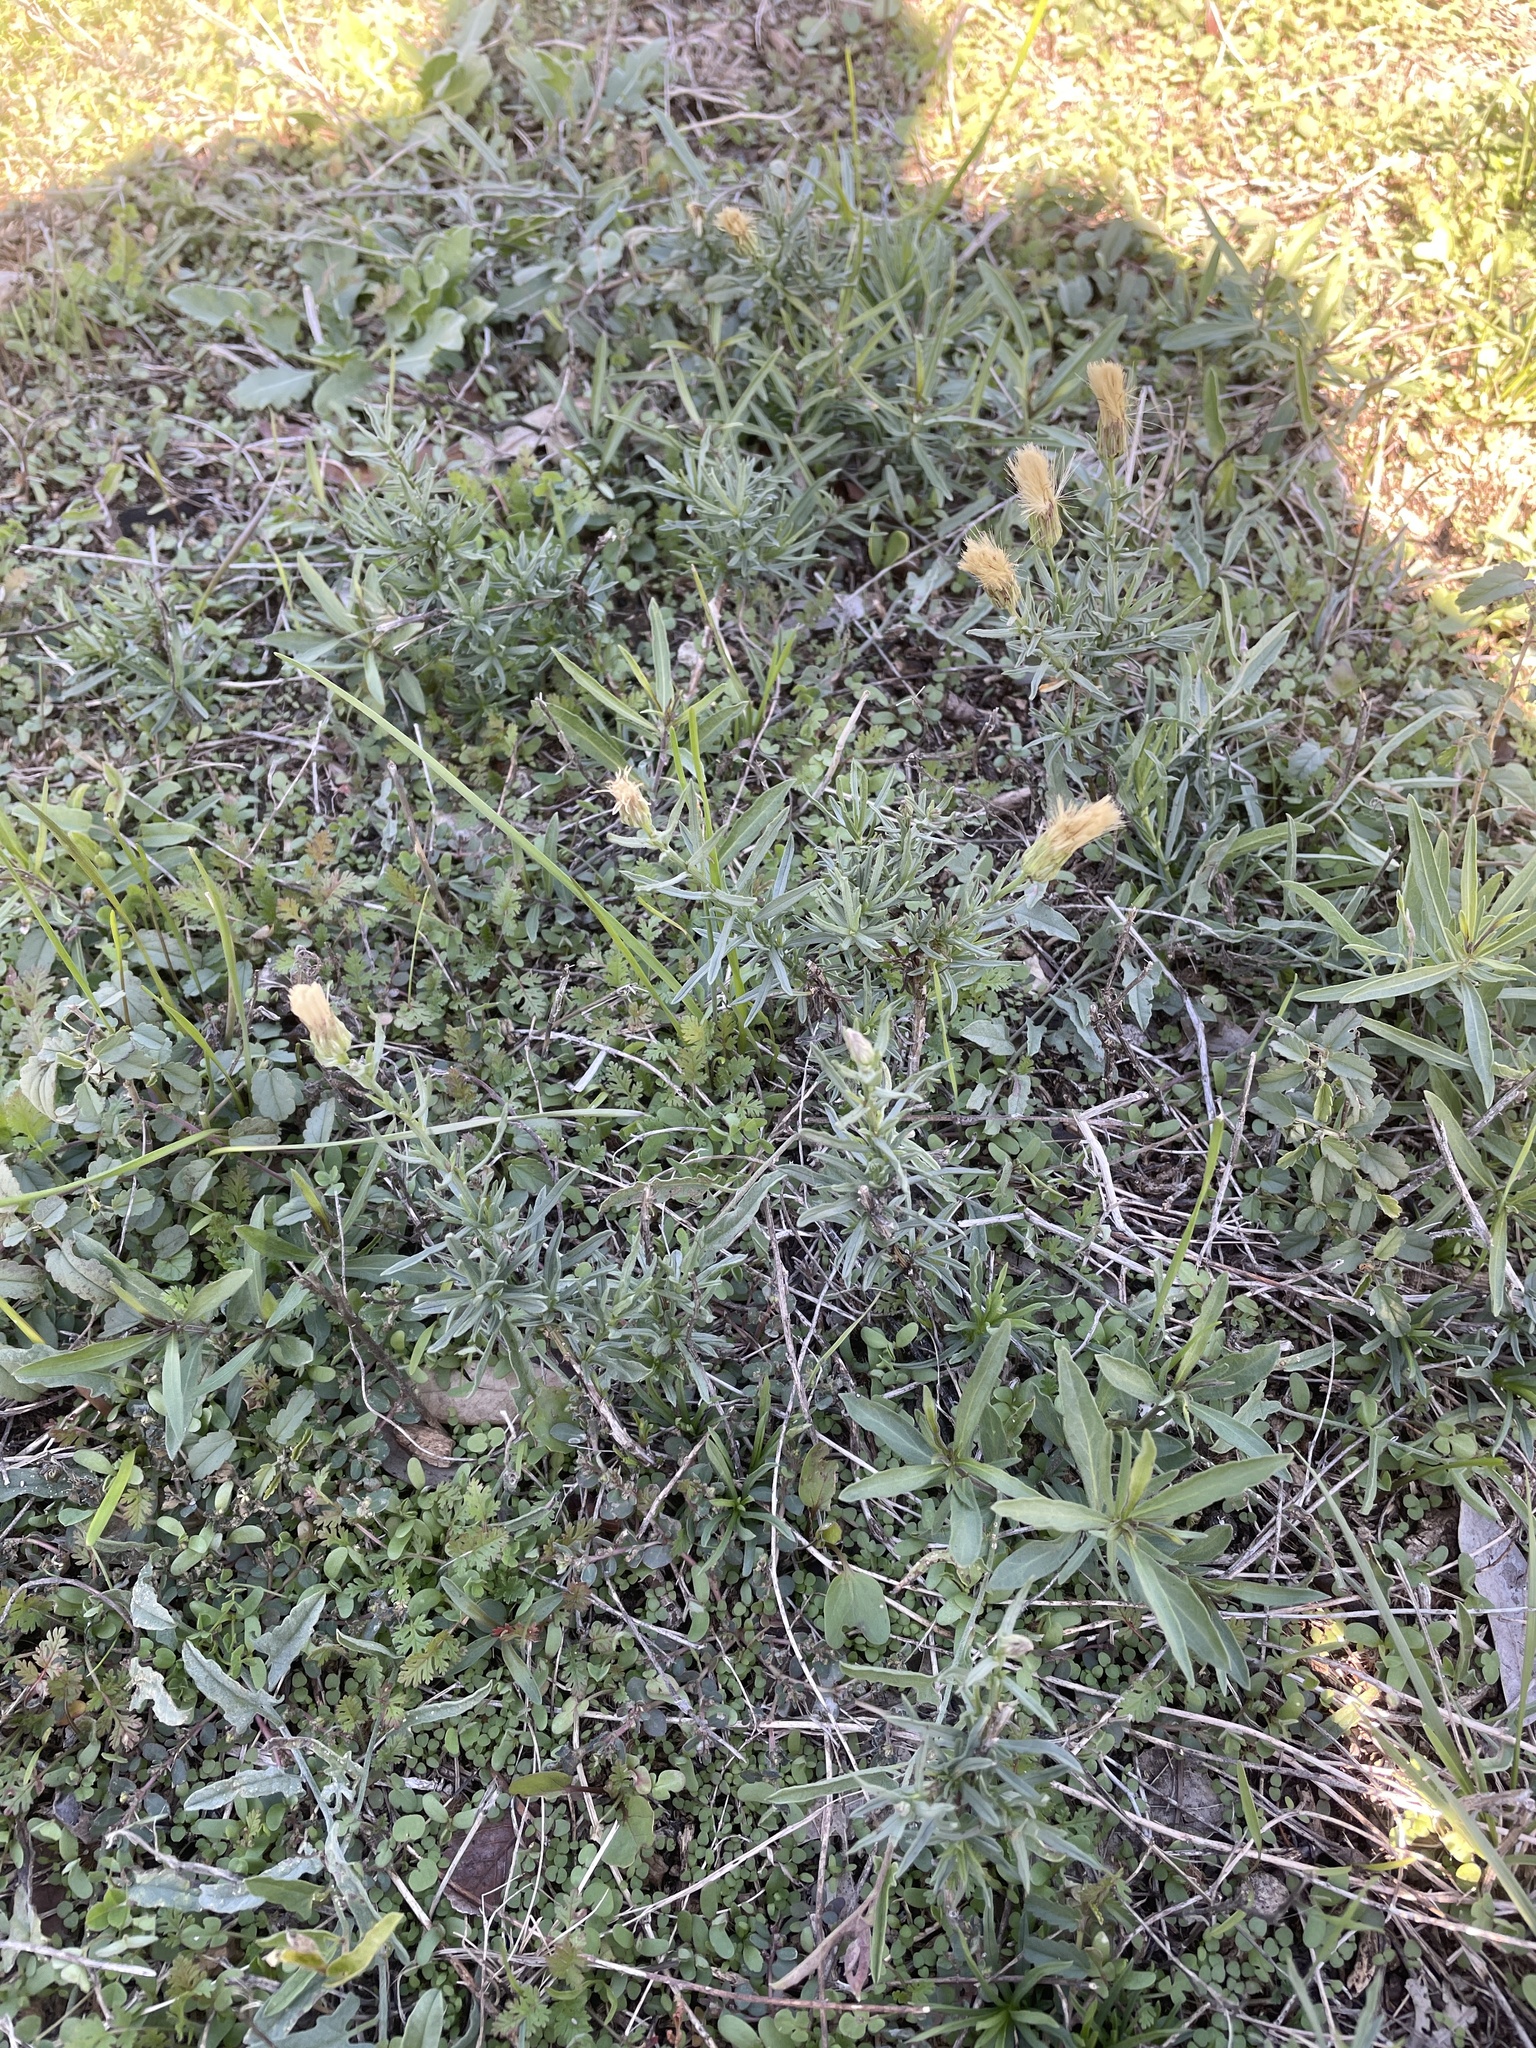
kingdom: Plantae
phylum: Tracheophyta
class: Magnoliopsida
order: Asterales
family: Asteraceae
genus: Baccharis
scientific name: Baccharis texana
